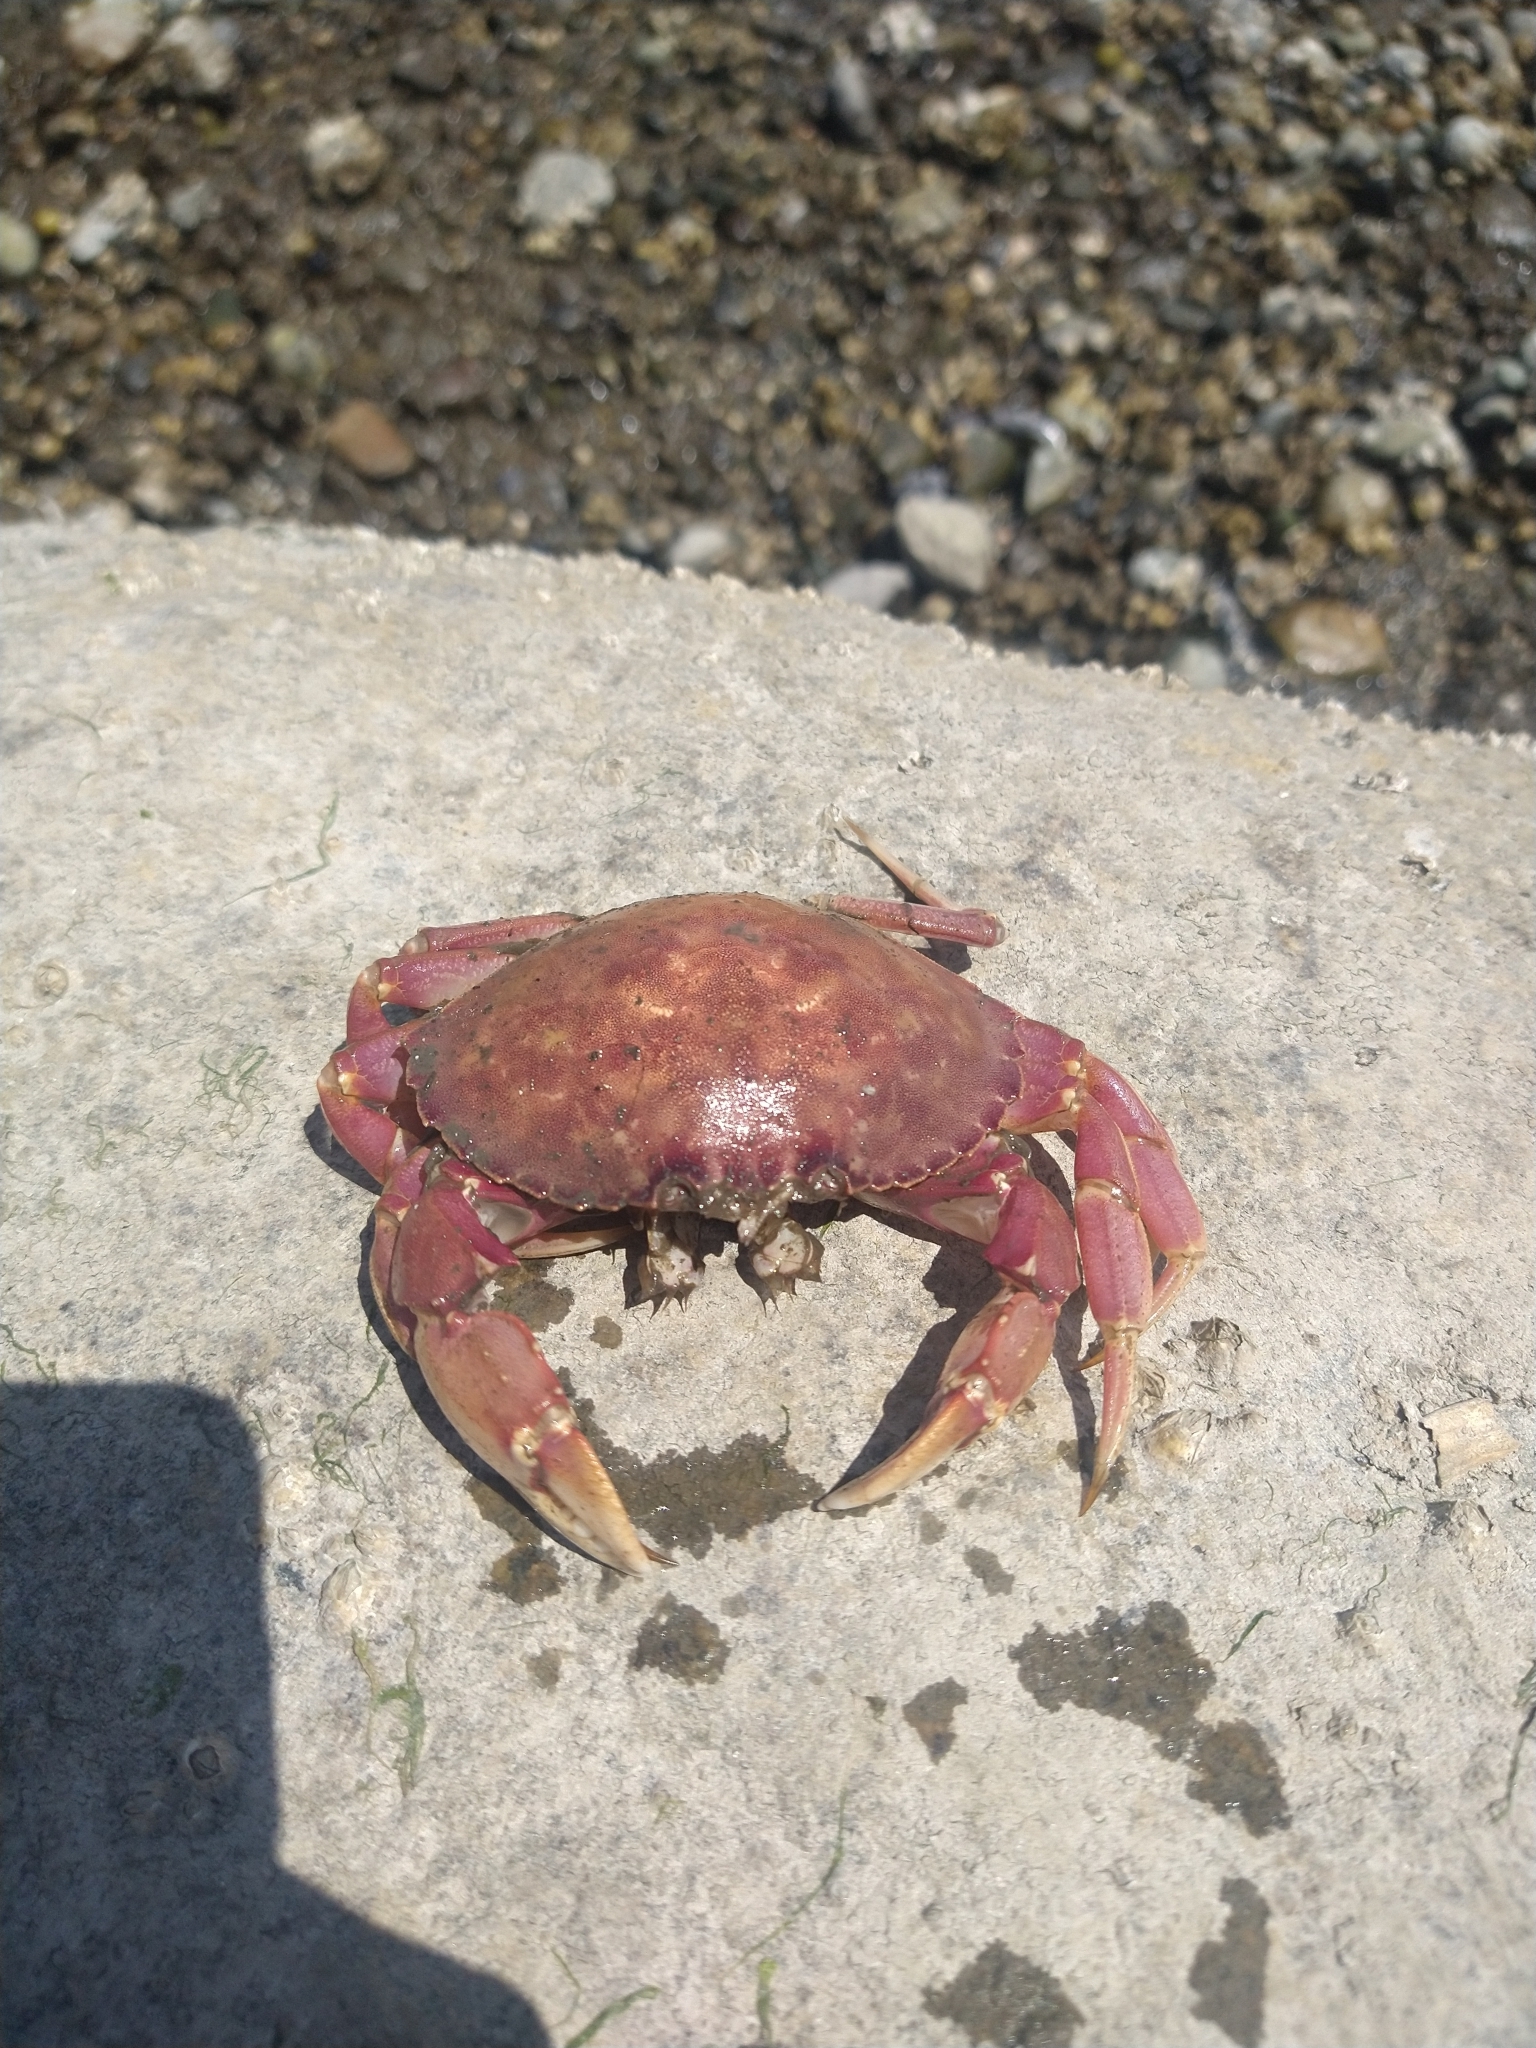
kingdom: Animalia
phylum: Arthropoda
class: Malacostraca
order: Decapoda
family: Cancridae
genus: Metacarcinus
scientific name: Metacarcinus gracilis
